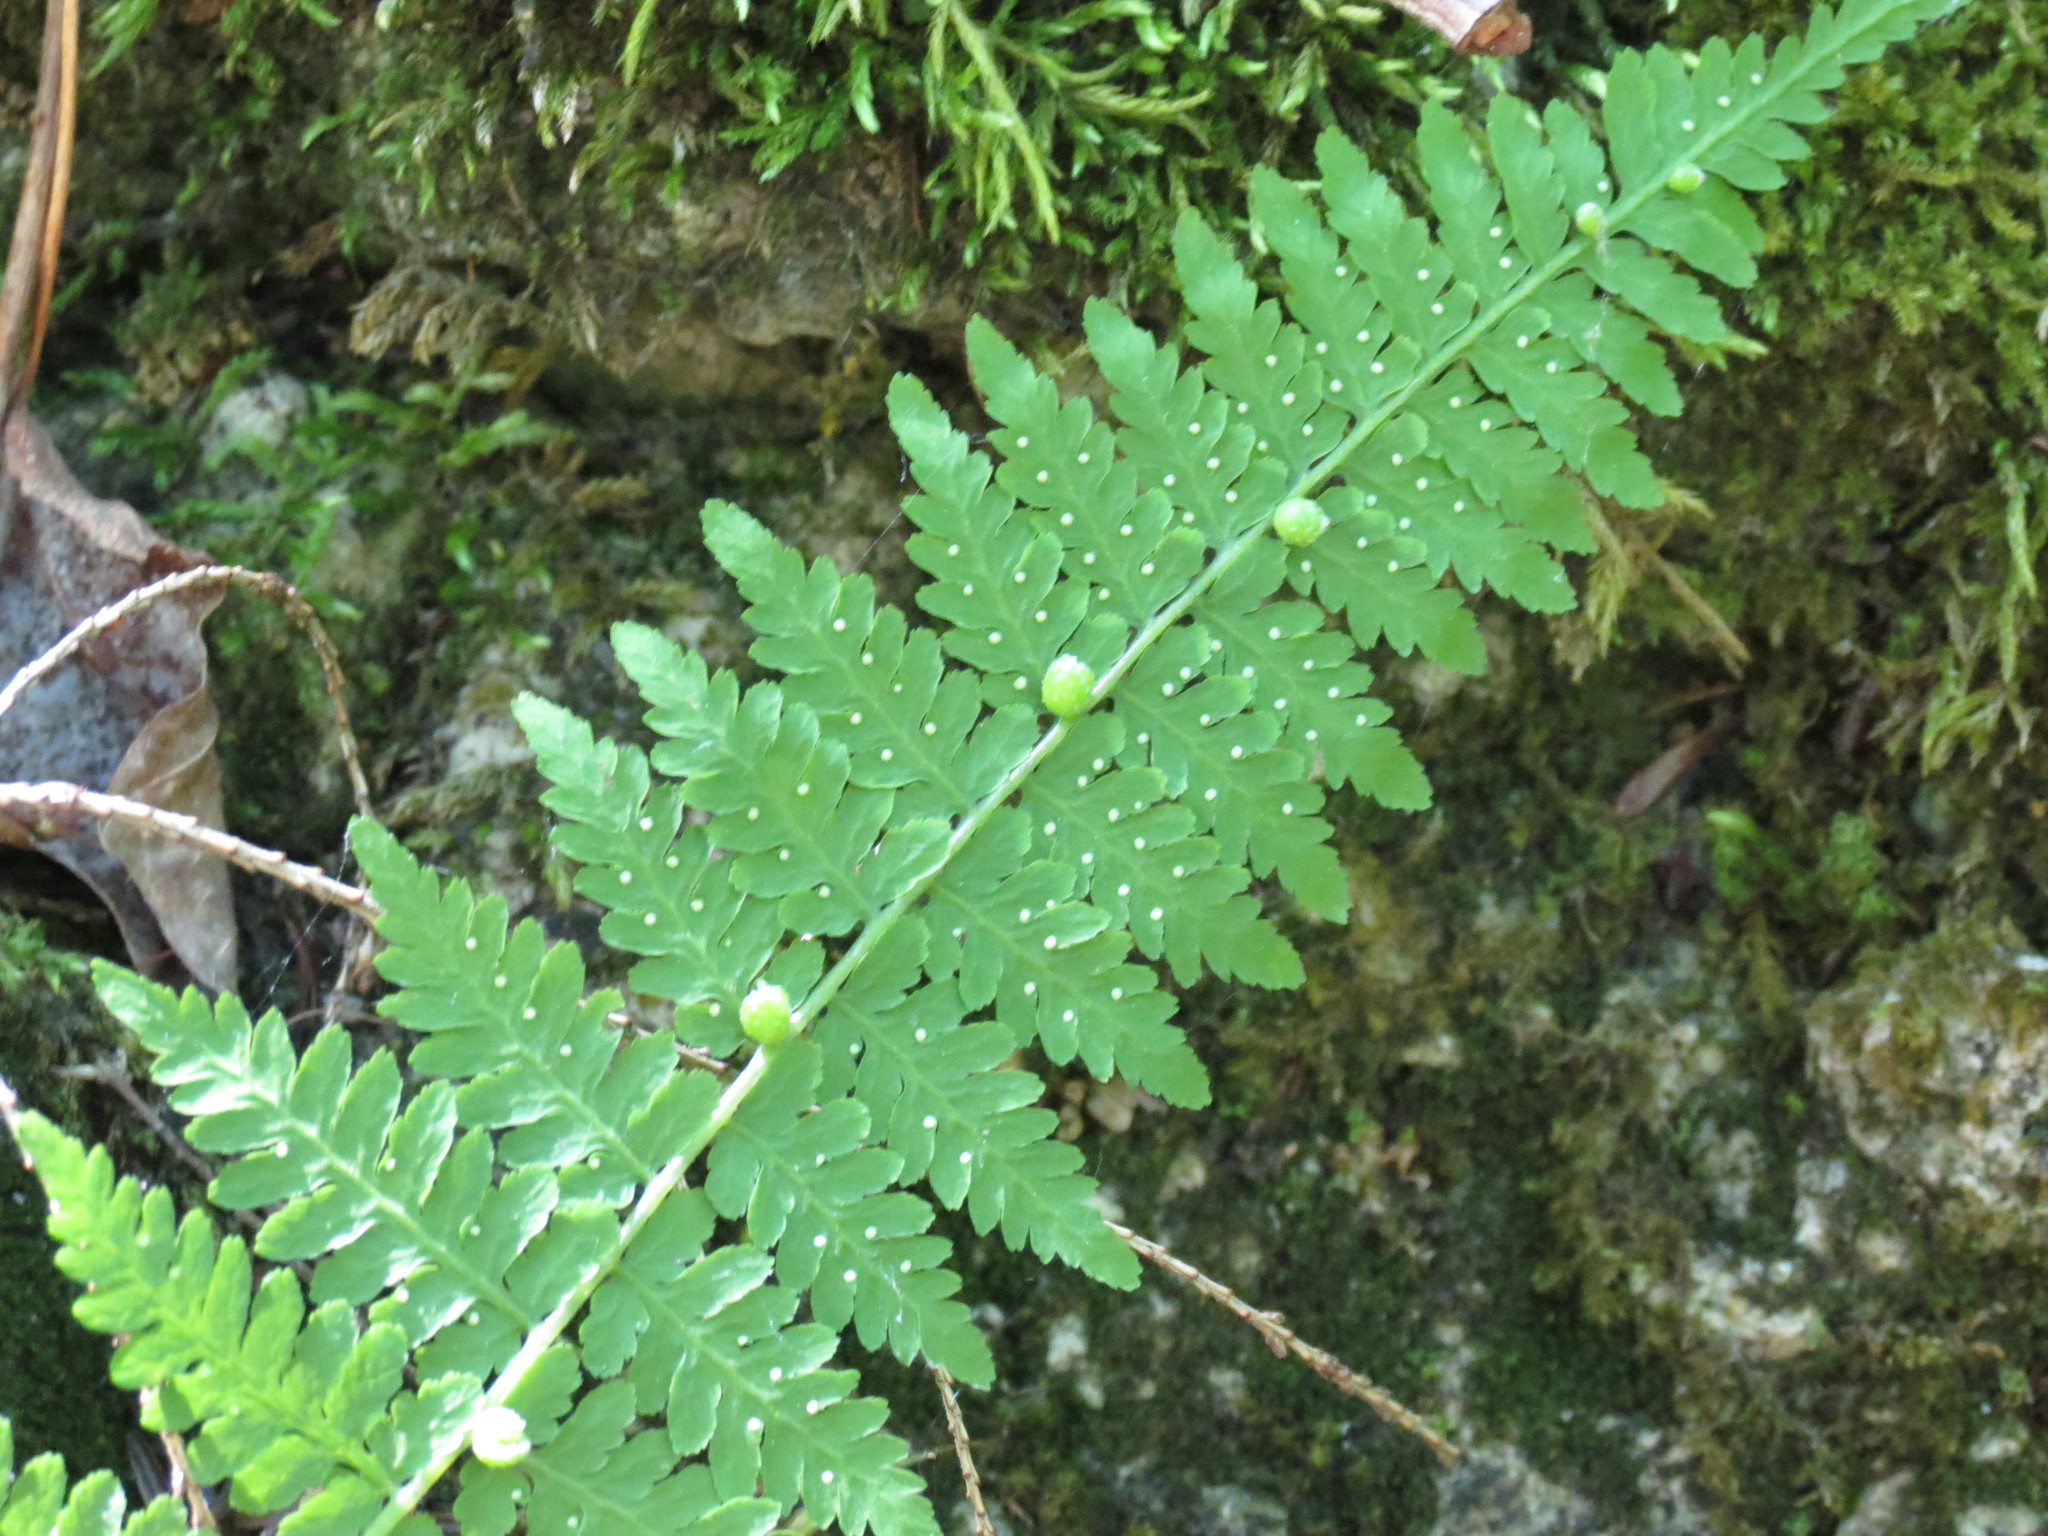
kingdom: Plantae
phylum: Tracheophyta
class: Polypodiopsida
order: Polypodiales
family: Cystopteridaceae
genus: Cystopteris
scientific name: Cystopteris bulbifera
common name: Bulblet bladder fern
